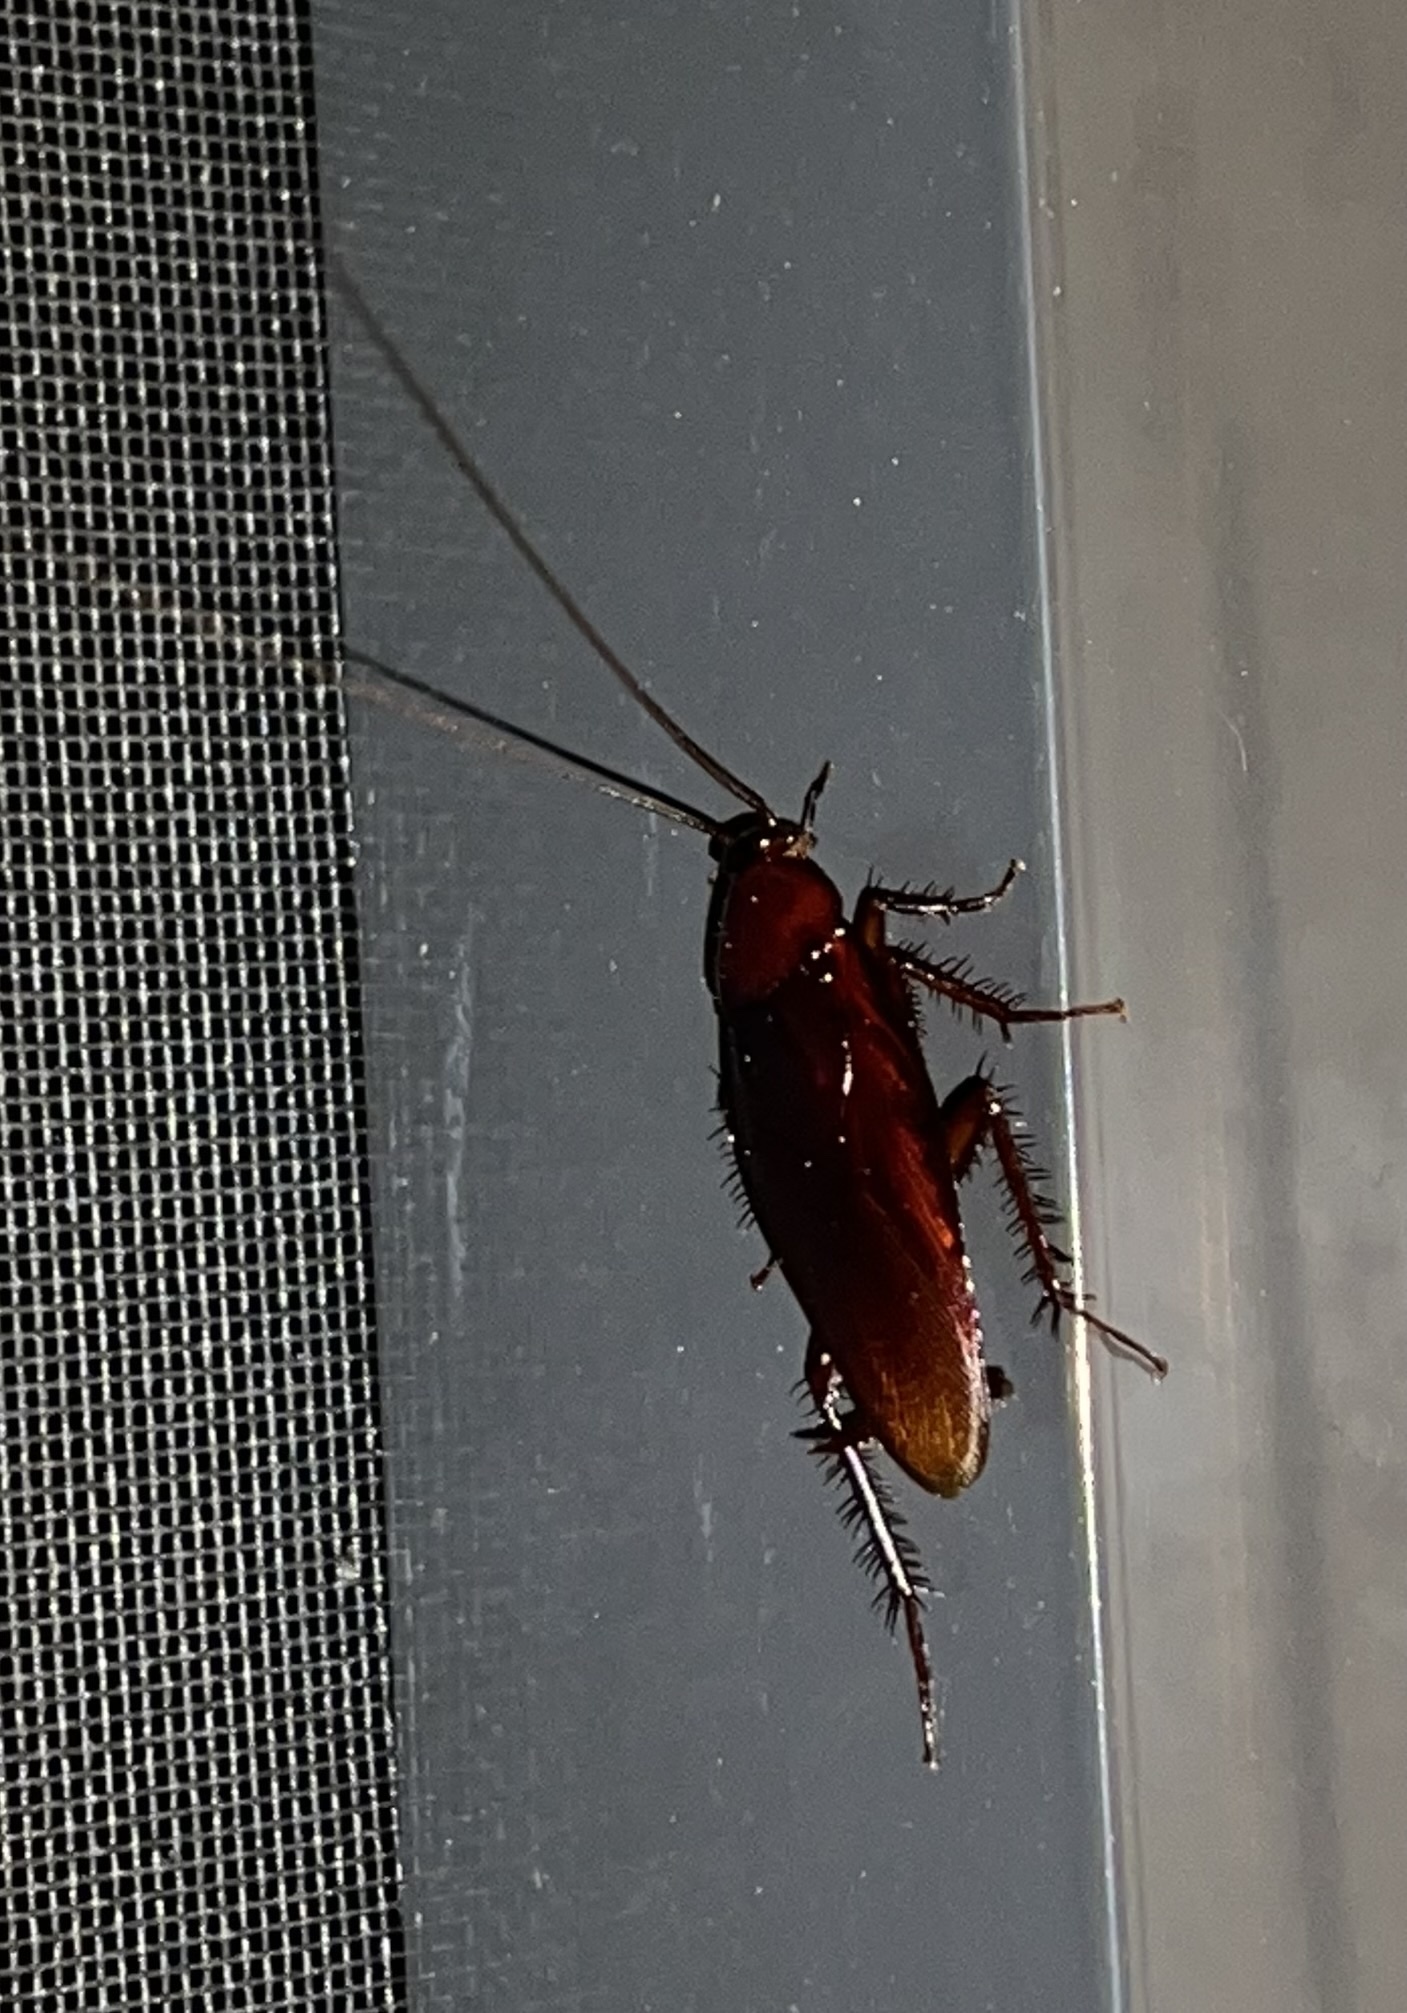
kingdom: Animalia
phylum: Arthropoda
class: Insecta
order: Blattodea
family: Blattidae
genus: Periplaneta
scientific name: Periplaneta fuliginosa
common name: Smokeybrown cockroad
